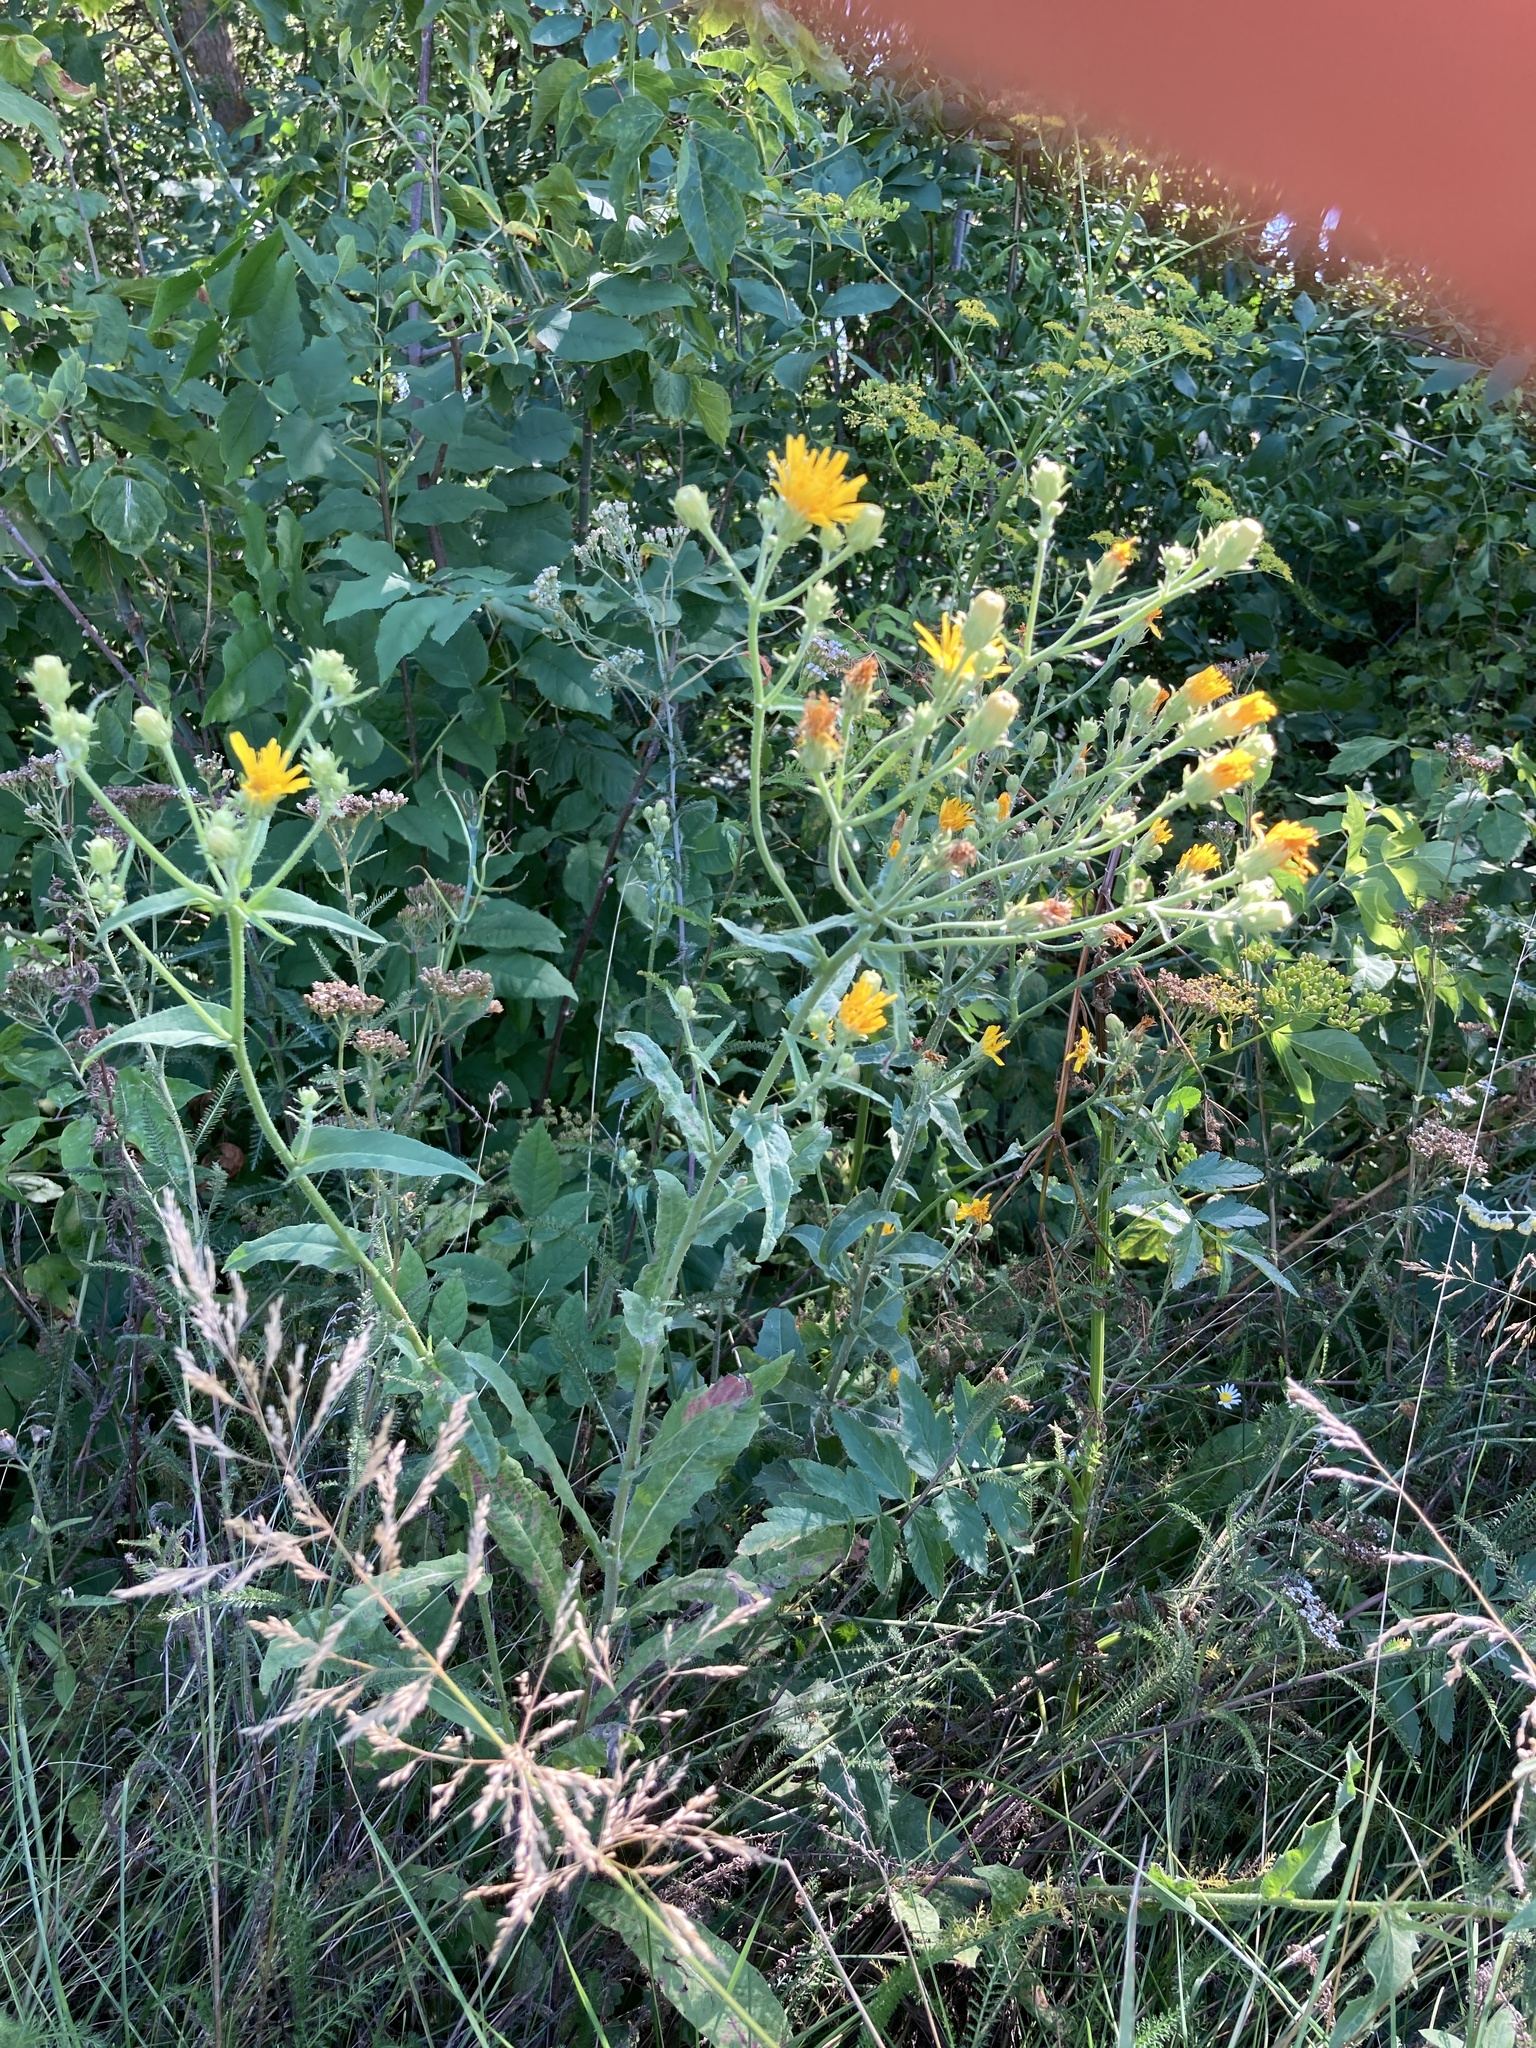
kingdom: Plantae
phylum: Tracheophyta
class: Magnoliopsida
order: Asterales
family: Asteraceae
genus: Picris
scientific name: Picris hieracioides
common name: Hawkweed oxtongue
